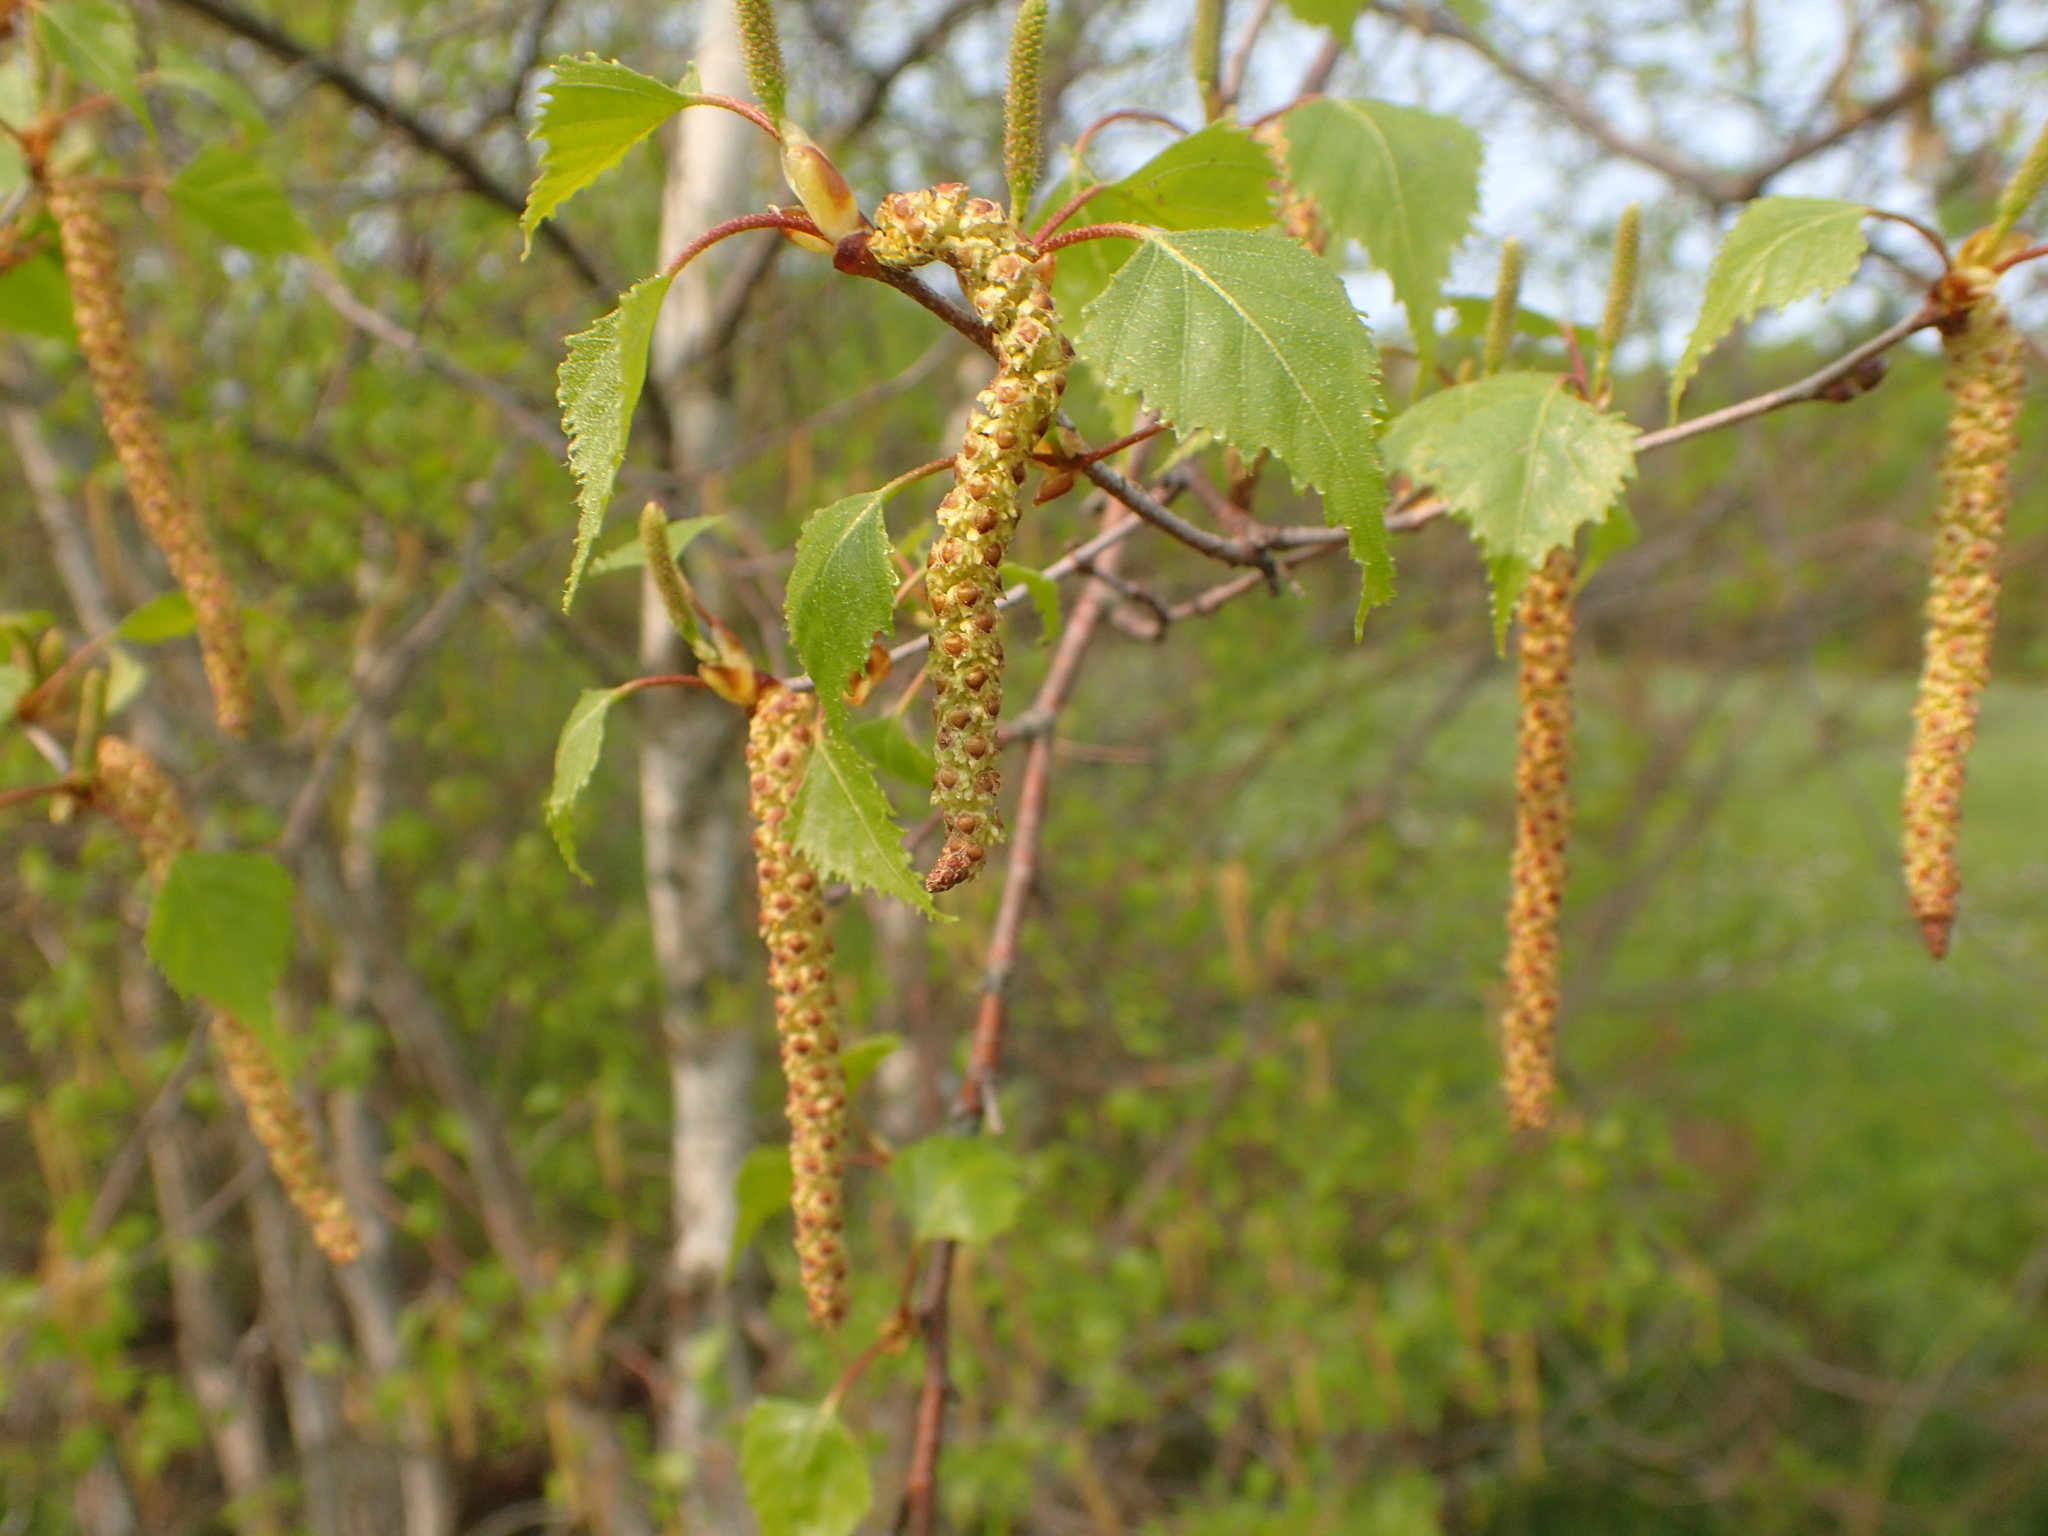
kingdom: Plantae
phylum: Tracheophyta
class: Magnoliopsida
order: Fagales
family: Betulaceae
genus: Betula
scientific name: Betula populifolia
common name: Fire birch
